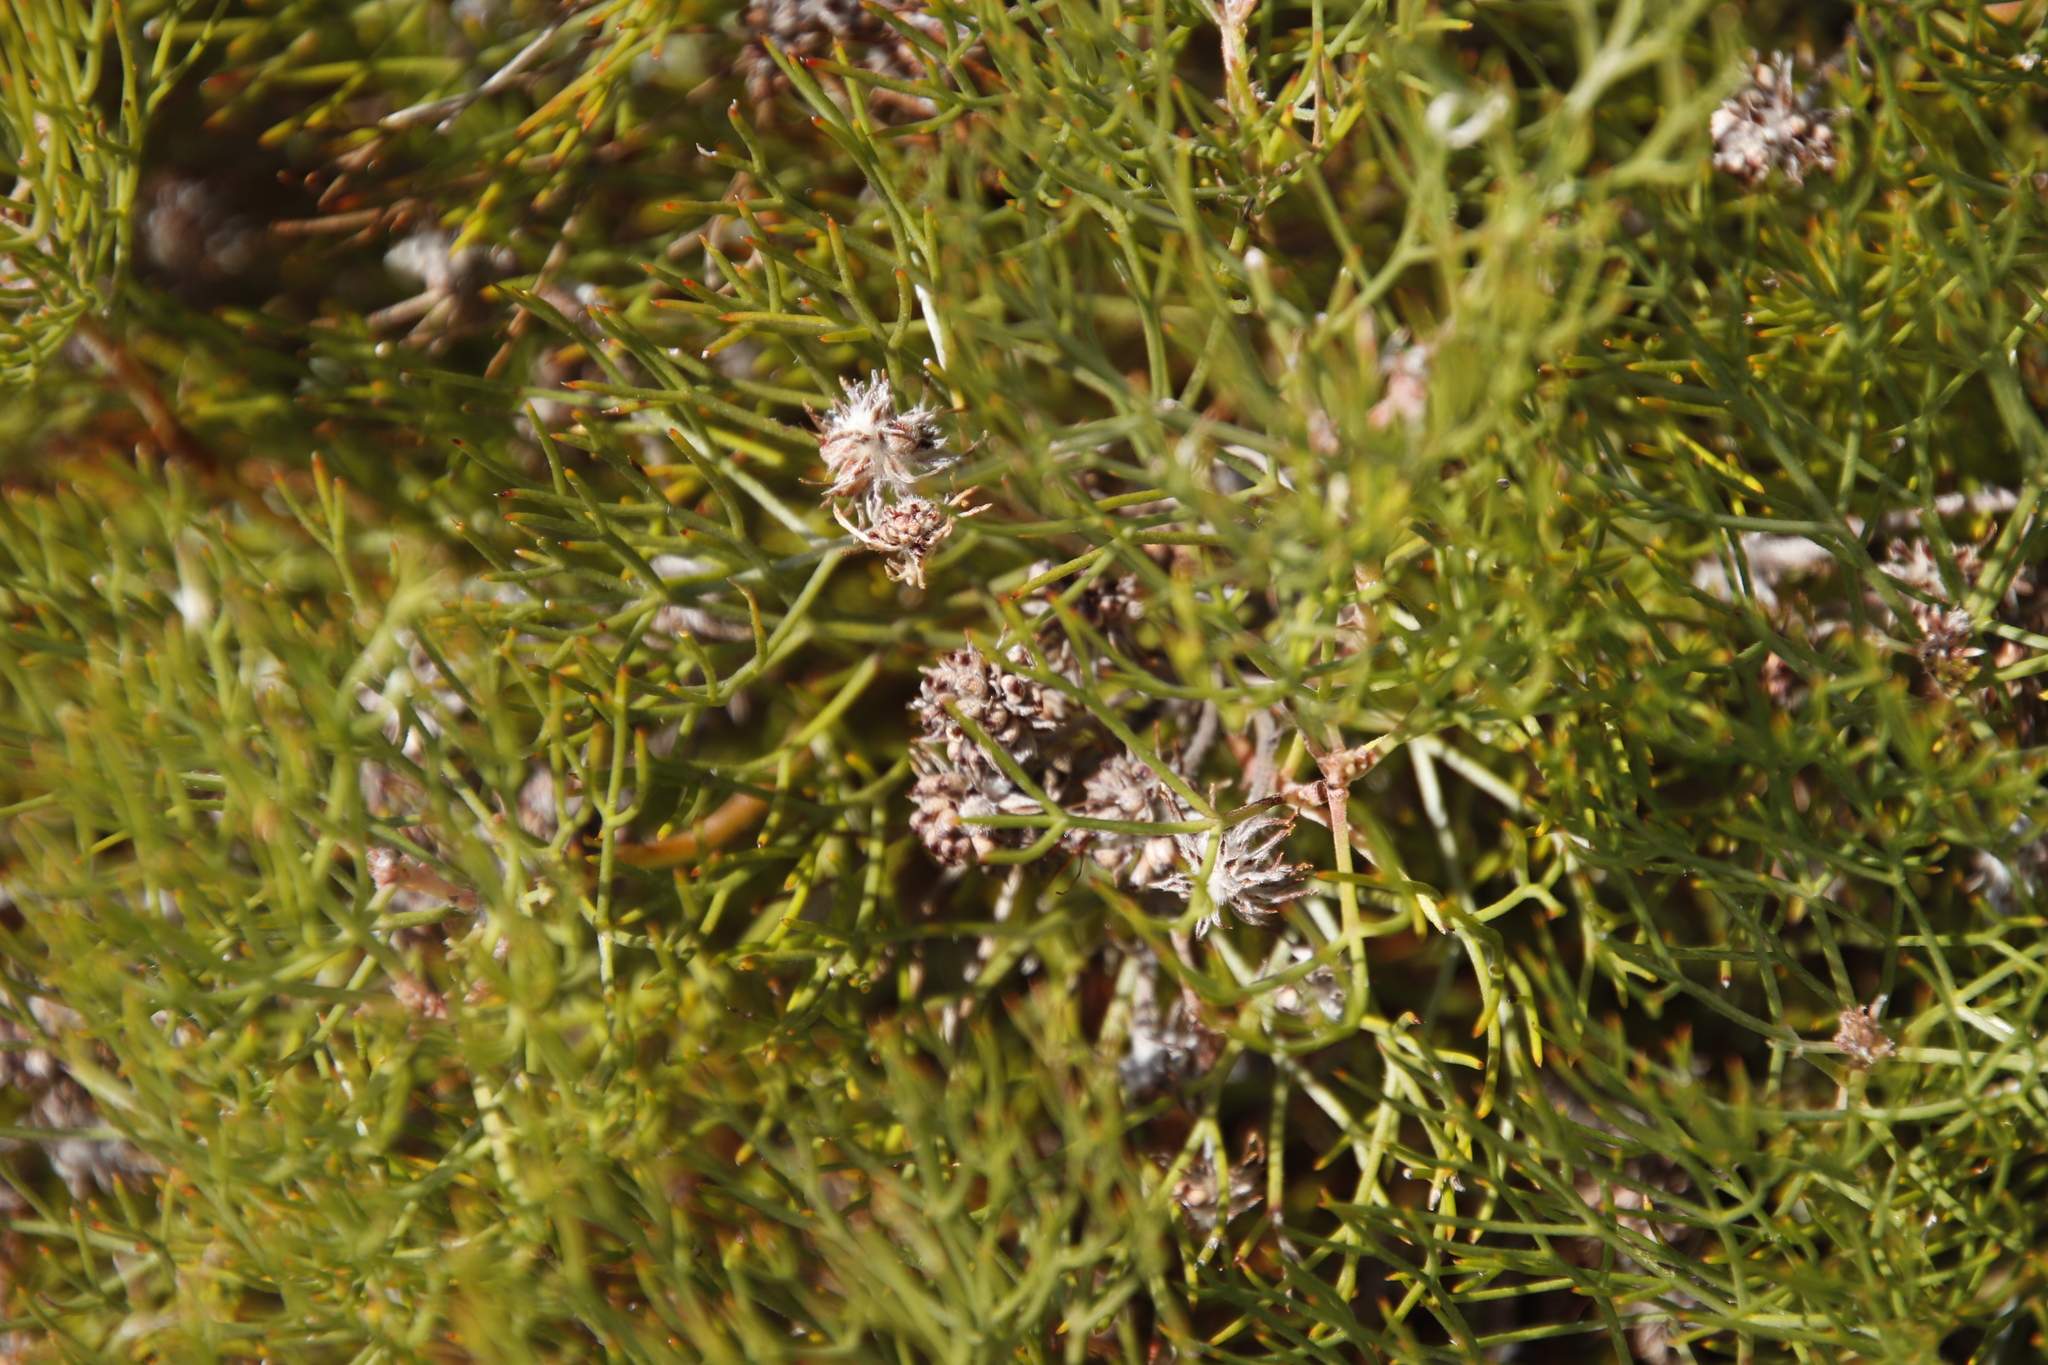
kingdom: Plantae
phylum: Tracheophyta
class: Magnoliopsida
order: Proteales
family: Proteaceae
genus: Serruria
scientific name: Serruria fasciflora
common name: Common pin spiderhead
